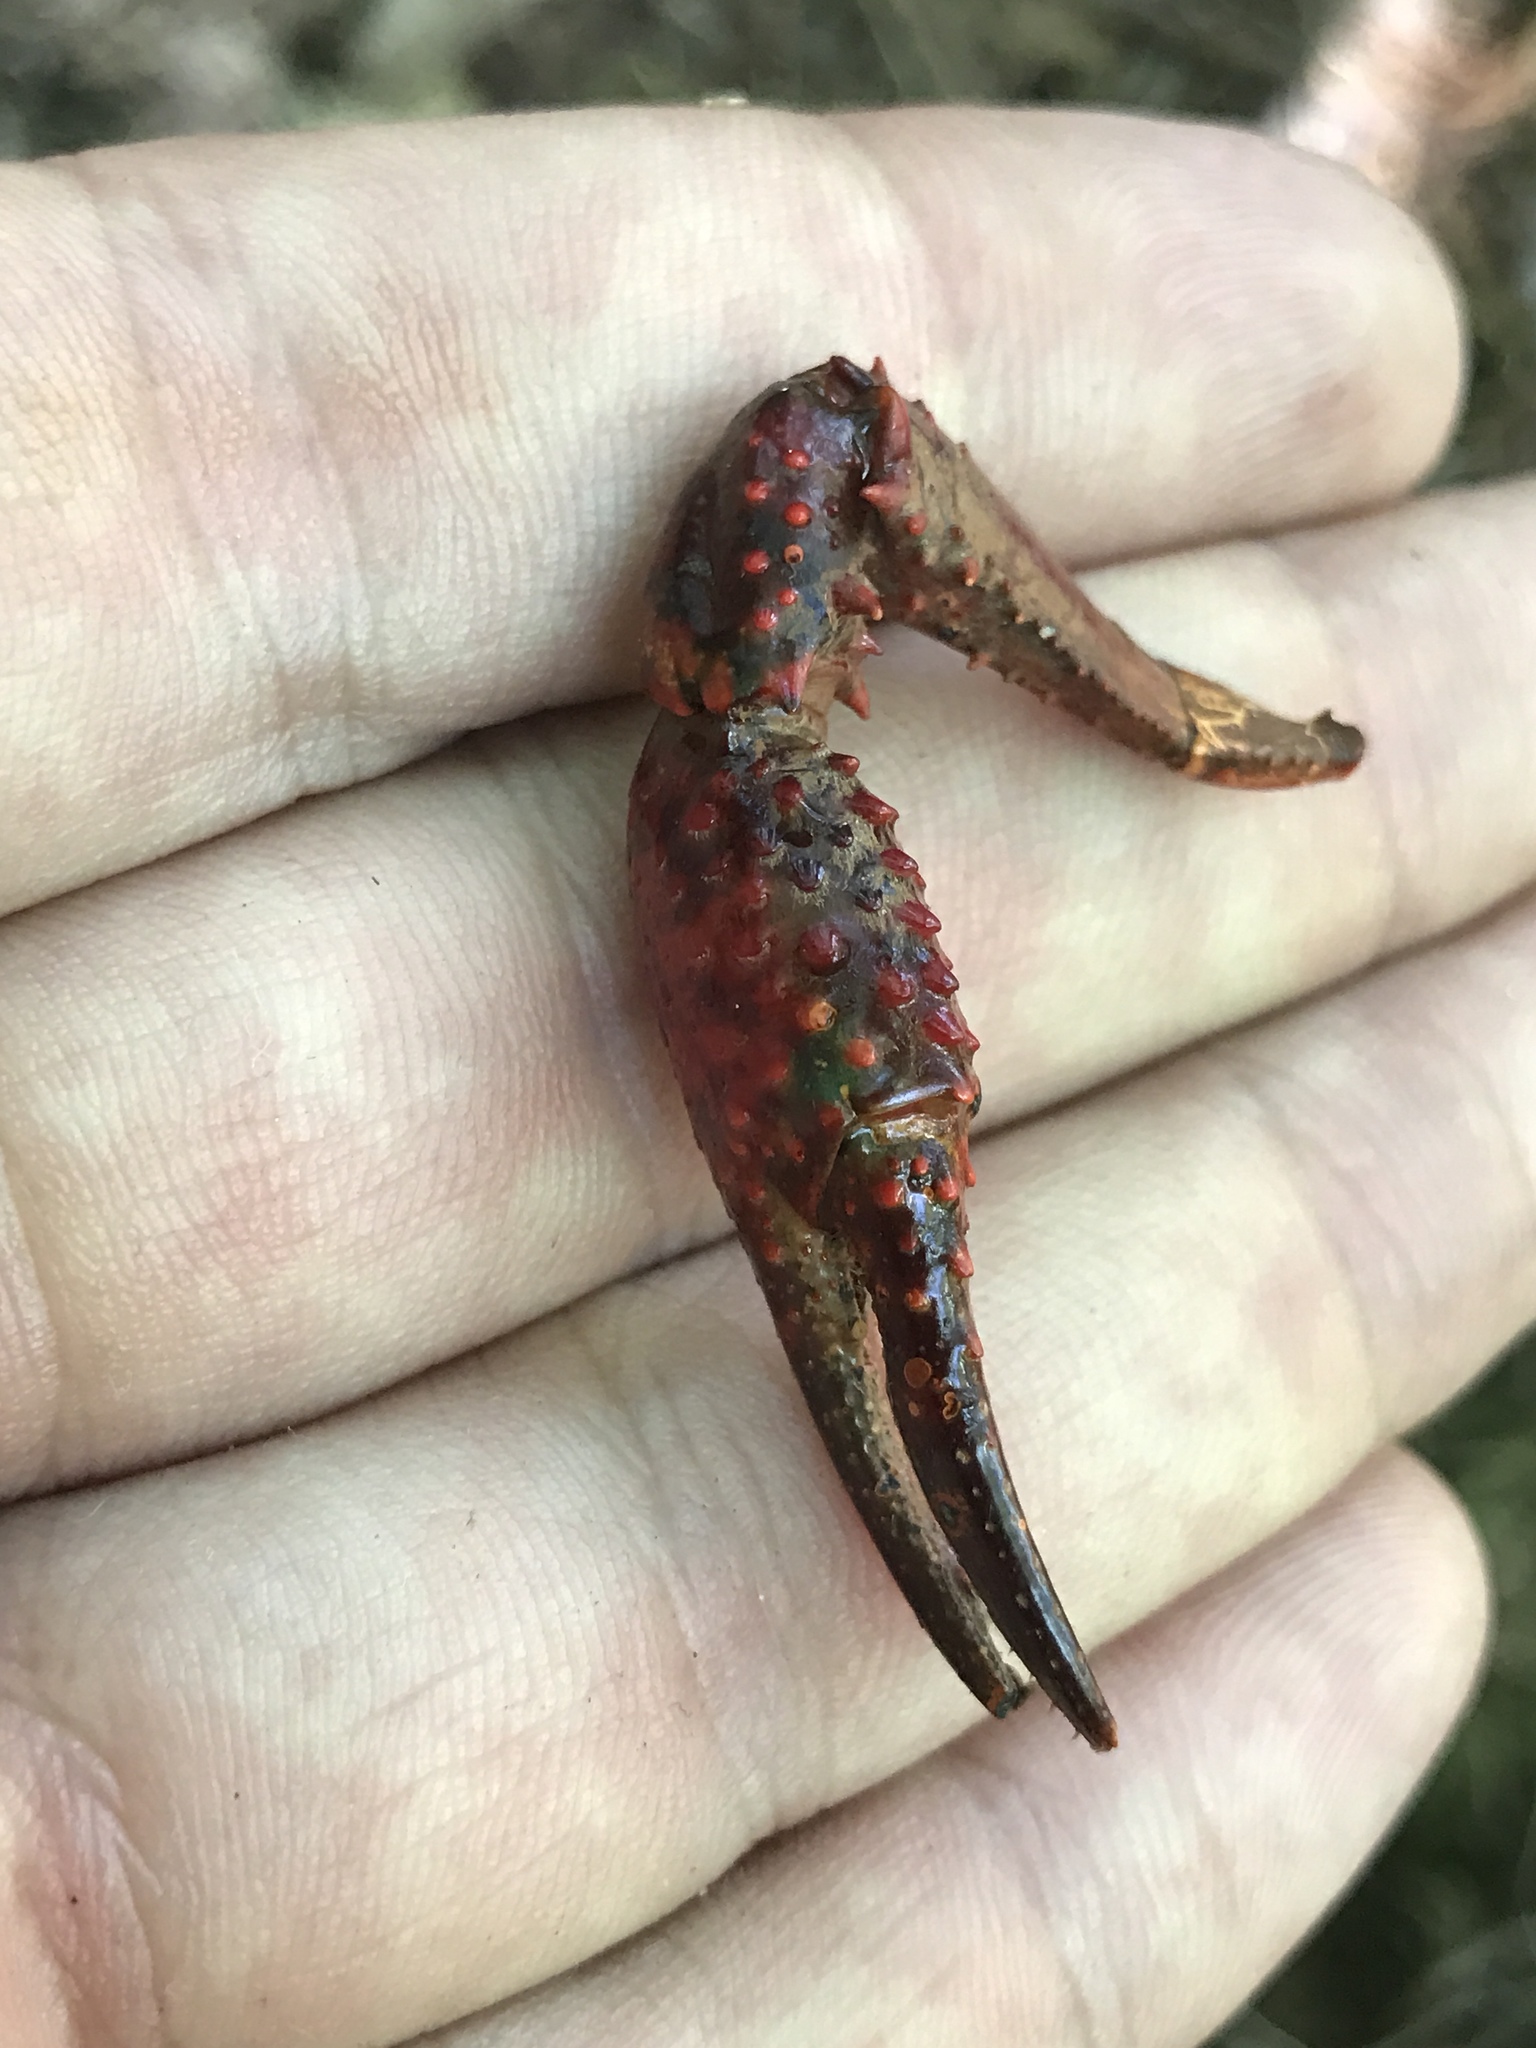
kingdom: Animalia
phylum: Arthropoda
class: Malacostraca
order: Decapoda
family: Cambaridae
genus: Procambarus
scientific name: Procambarus clarkii
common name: Red swamp crayfish
